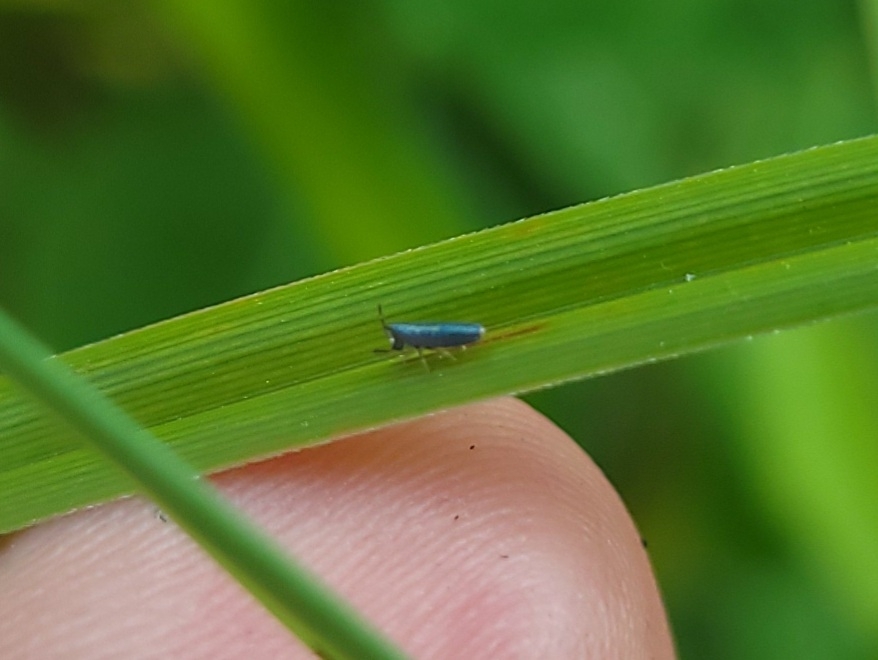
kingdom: Animalia
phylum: Arthropoda
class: Collembola
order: Entomobryomorpha
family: Entomobryidae
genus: Lepidocyrtus
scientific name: Lepidocyrtus paradoxus
